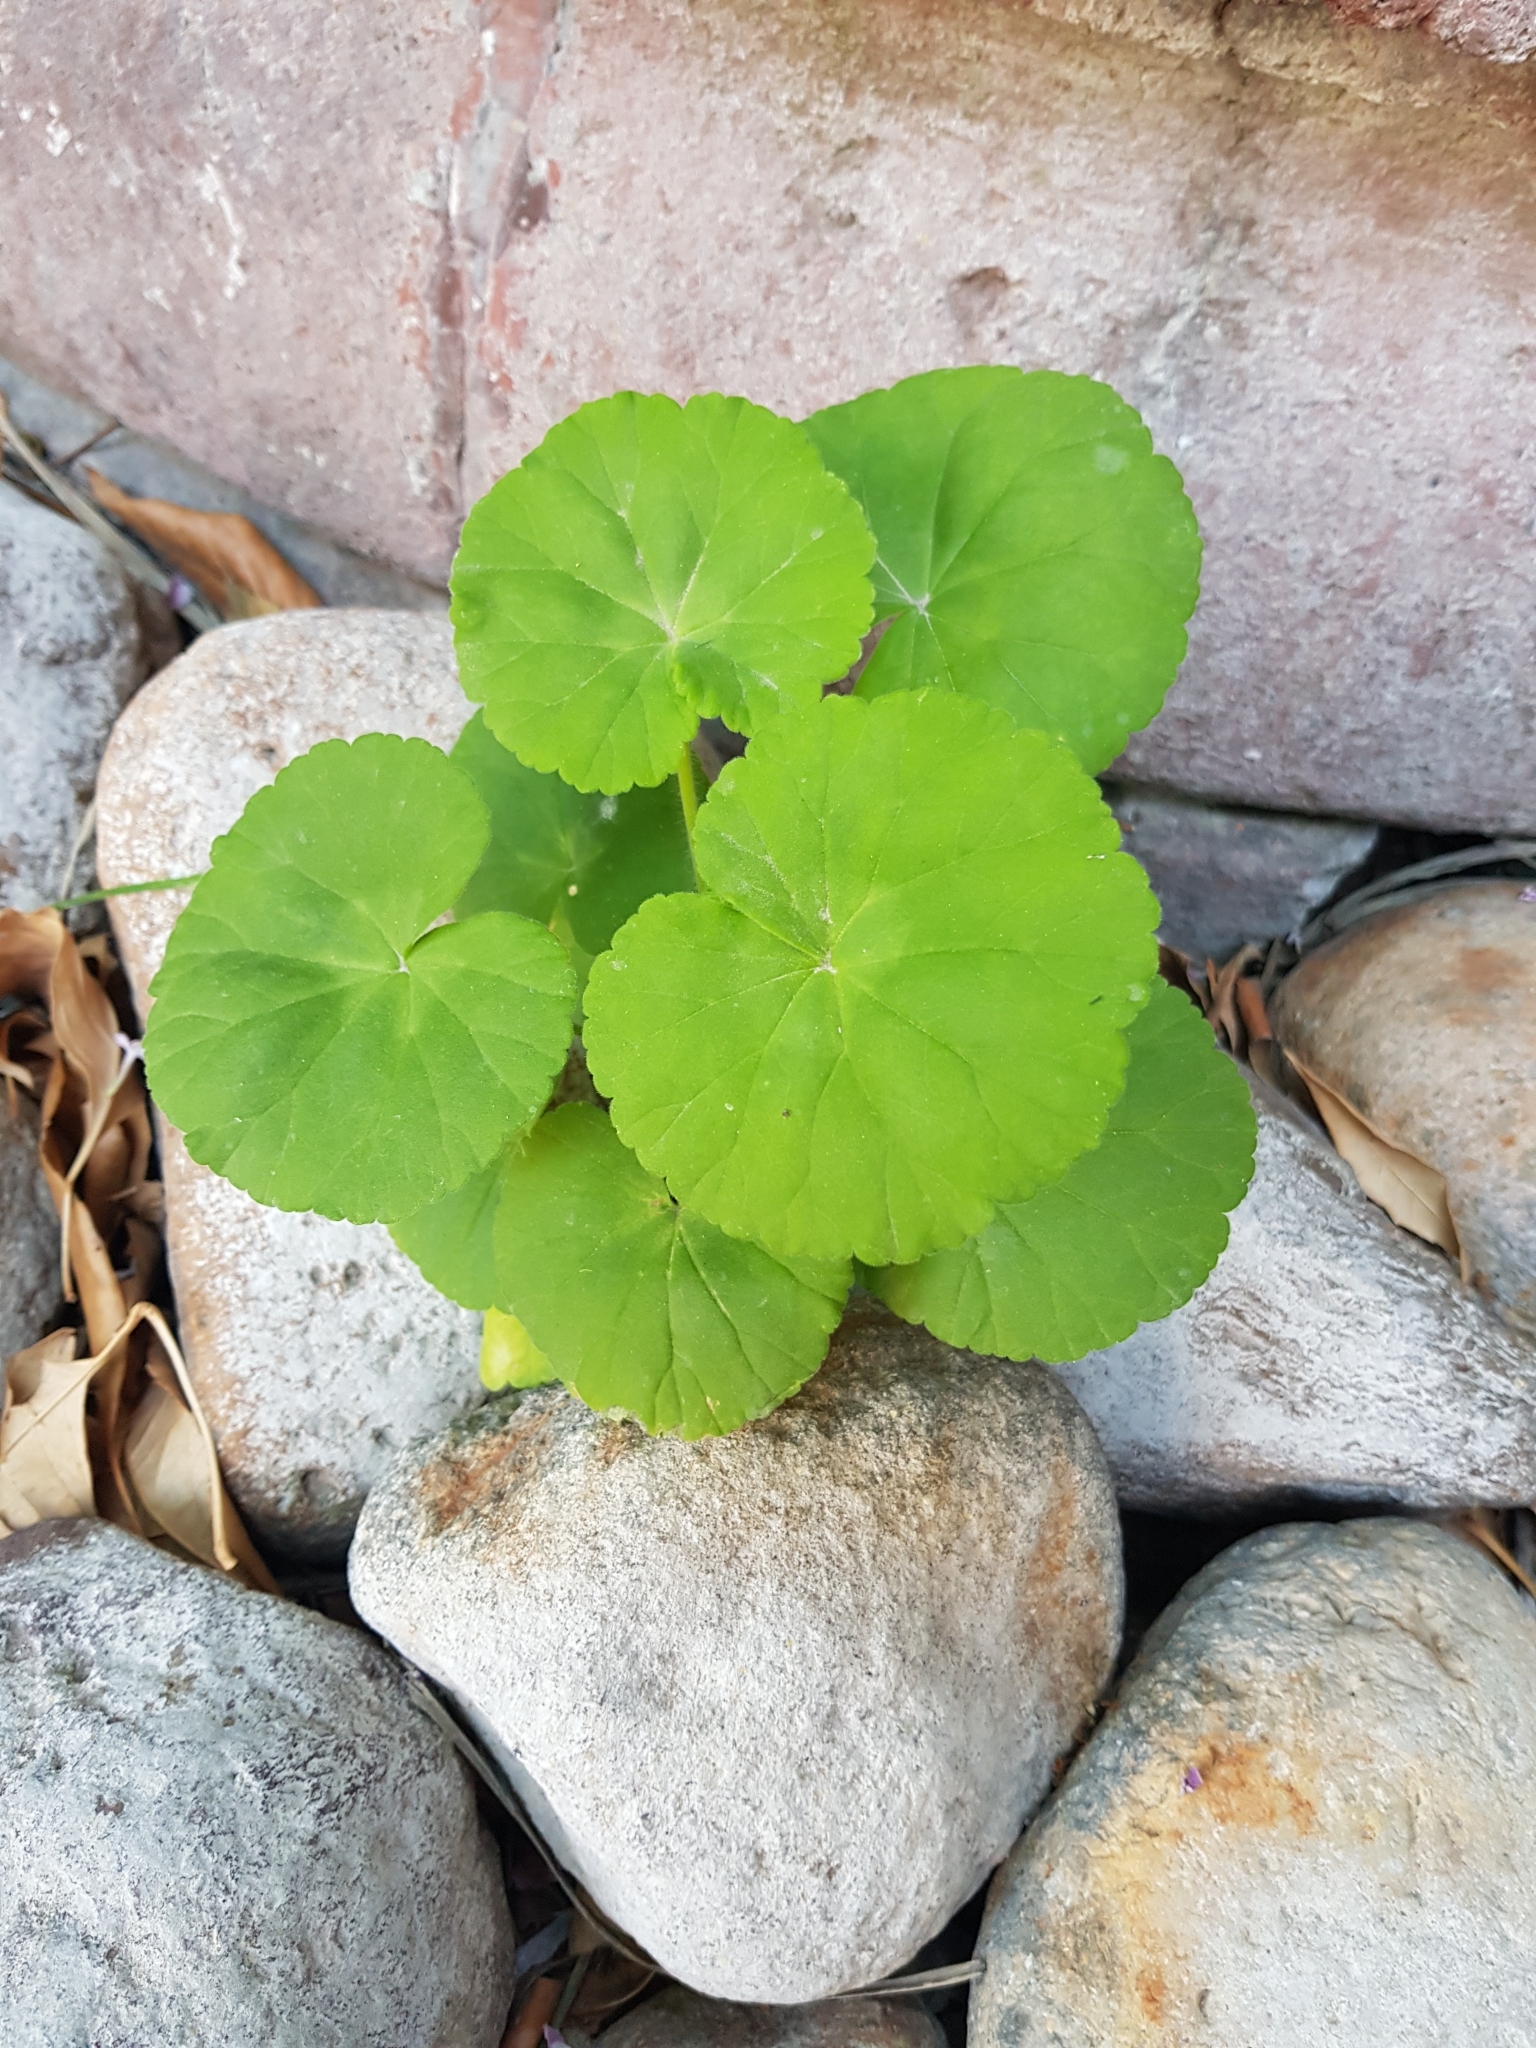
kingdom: Plantae
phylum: Tracheophyta
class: Magnoliopsida
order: Brassicales
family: Tropaeolaceae
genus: Tropaeolum
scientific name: Tropaeolum majus
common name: Nasturtium
